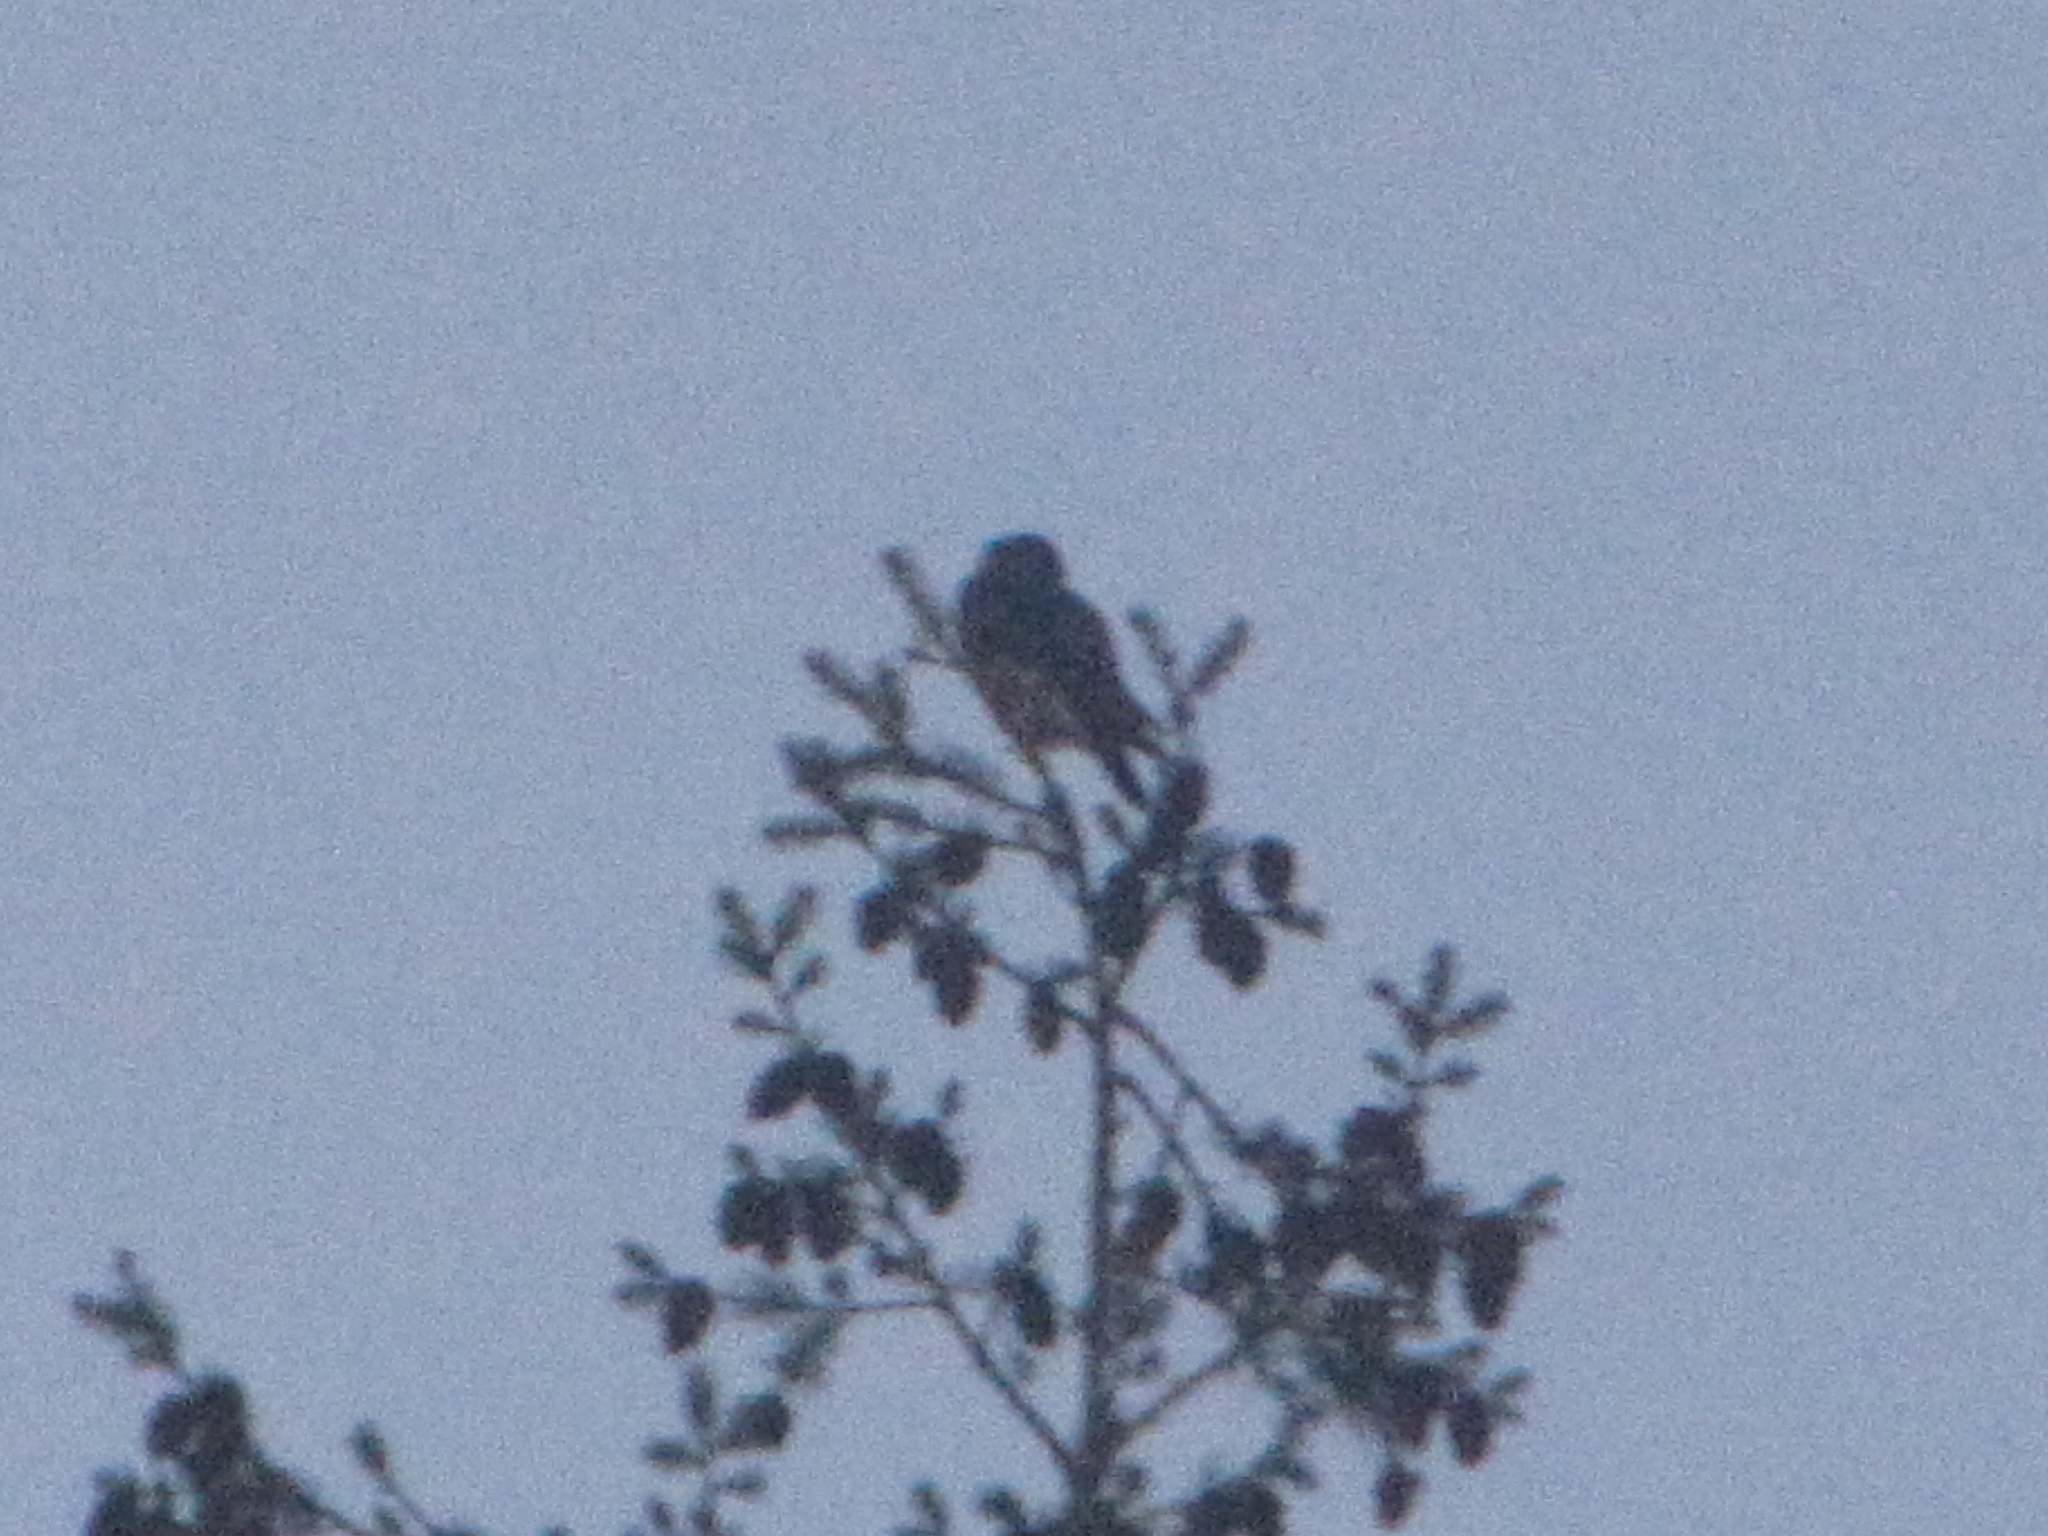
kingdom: Animalia
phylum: Chordata
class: Aves
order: Falconiformes
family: Falconidae
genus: Falco
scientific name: Falco columbarius
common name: Merlin
